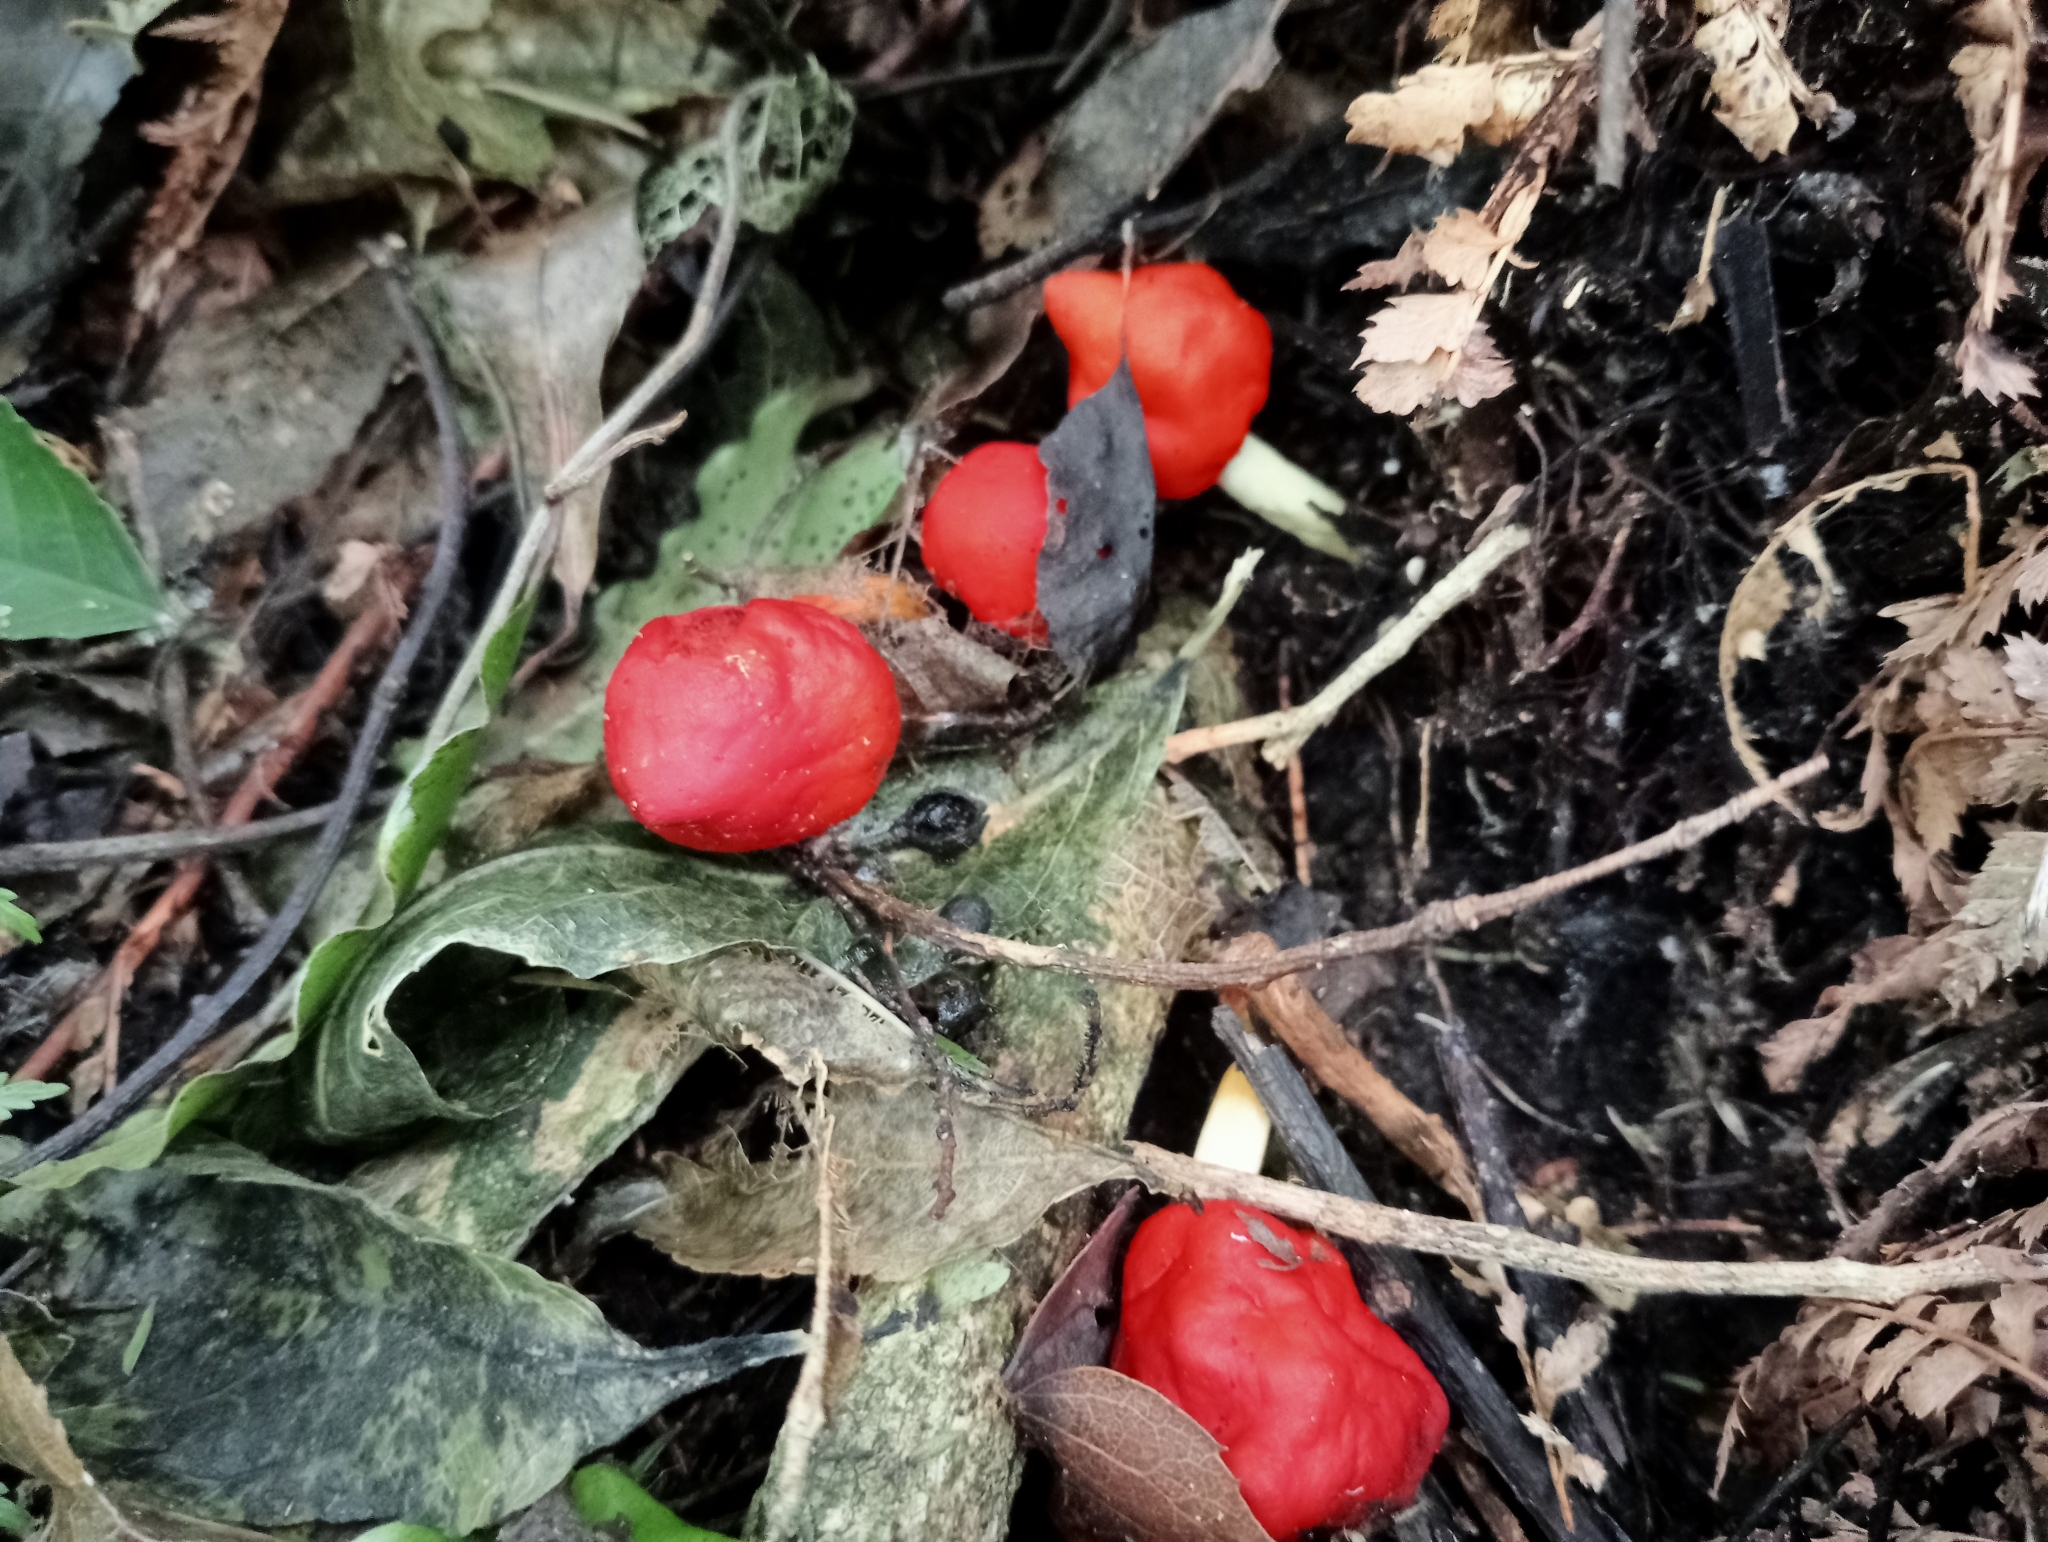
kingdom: Fungi
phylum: Basidiomycota
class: Agaricomycetes
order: Agaricales
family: Strophariaceae
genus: Leratiomyces
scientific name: Leratiomyces erythrocephalus
